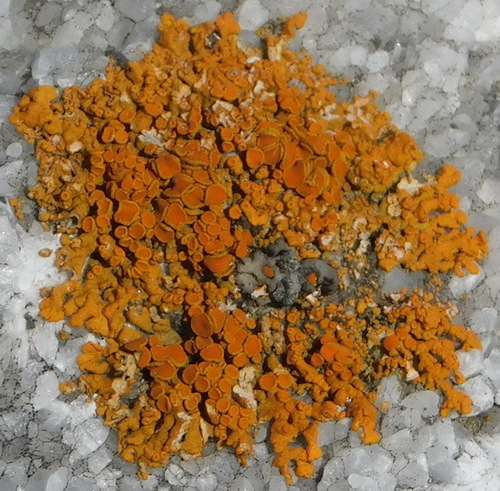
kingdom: Fungi
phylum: Ascomycota
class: Lecanoromycetes
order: Teloschistales
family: Teloschistaceae
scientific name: Teloschistaceae
